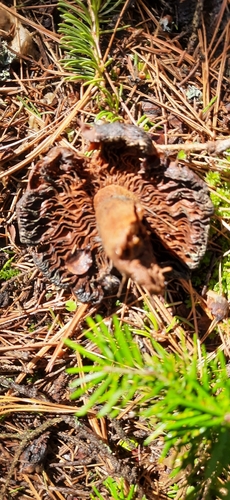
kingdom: Fungi
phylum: Basidiomycota
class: Agaricomycetes
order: Agaricales
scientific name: Agaricales
